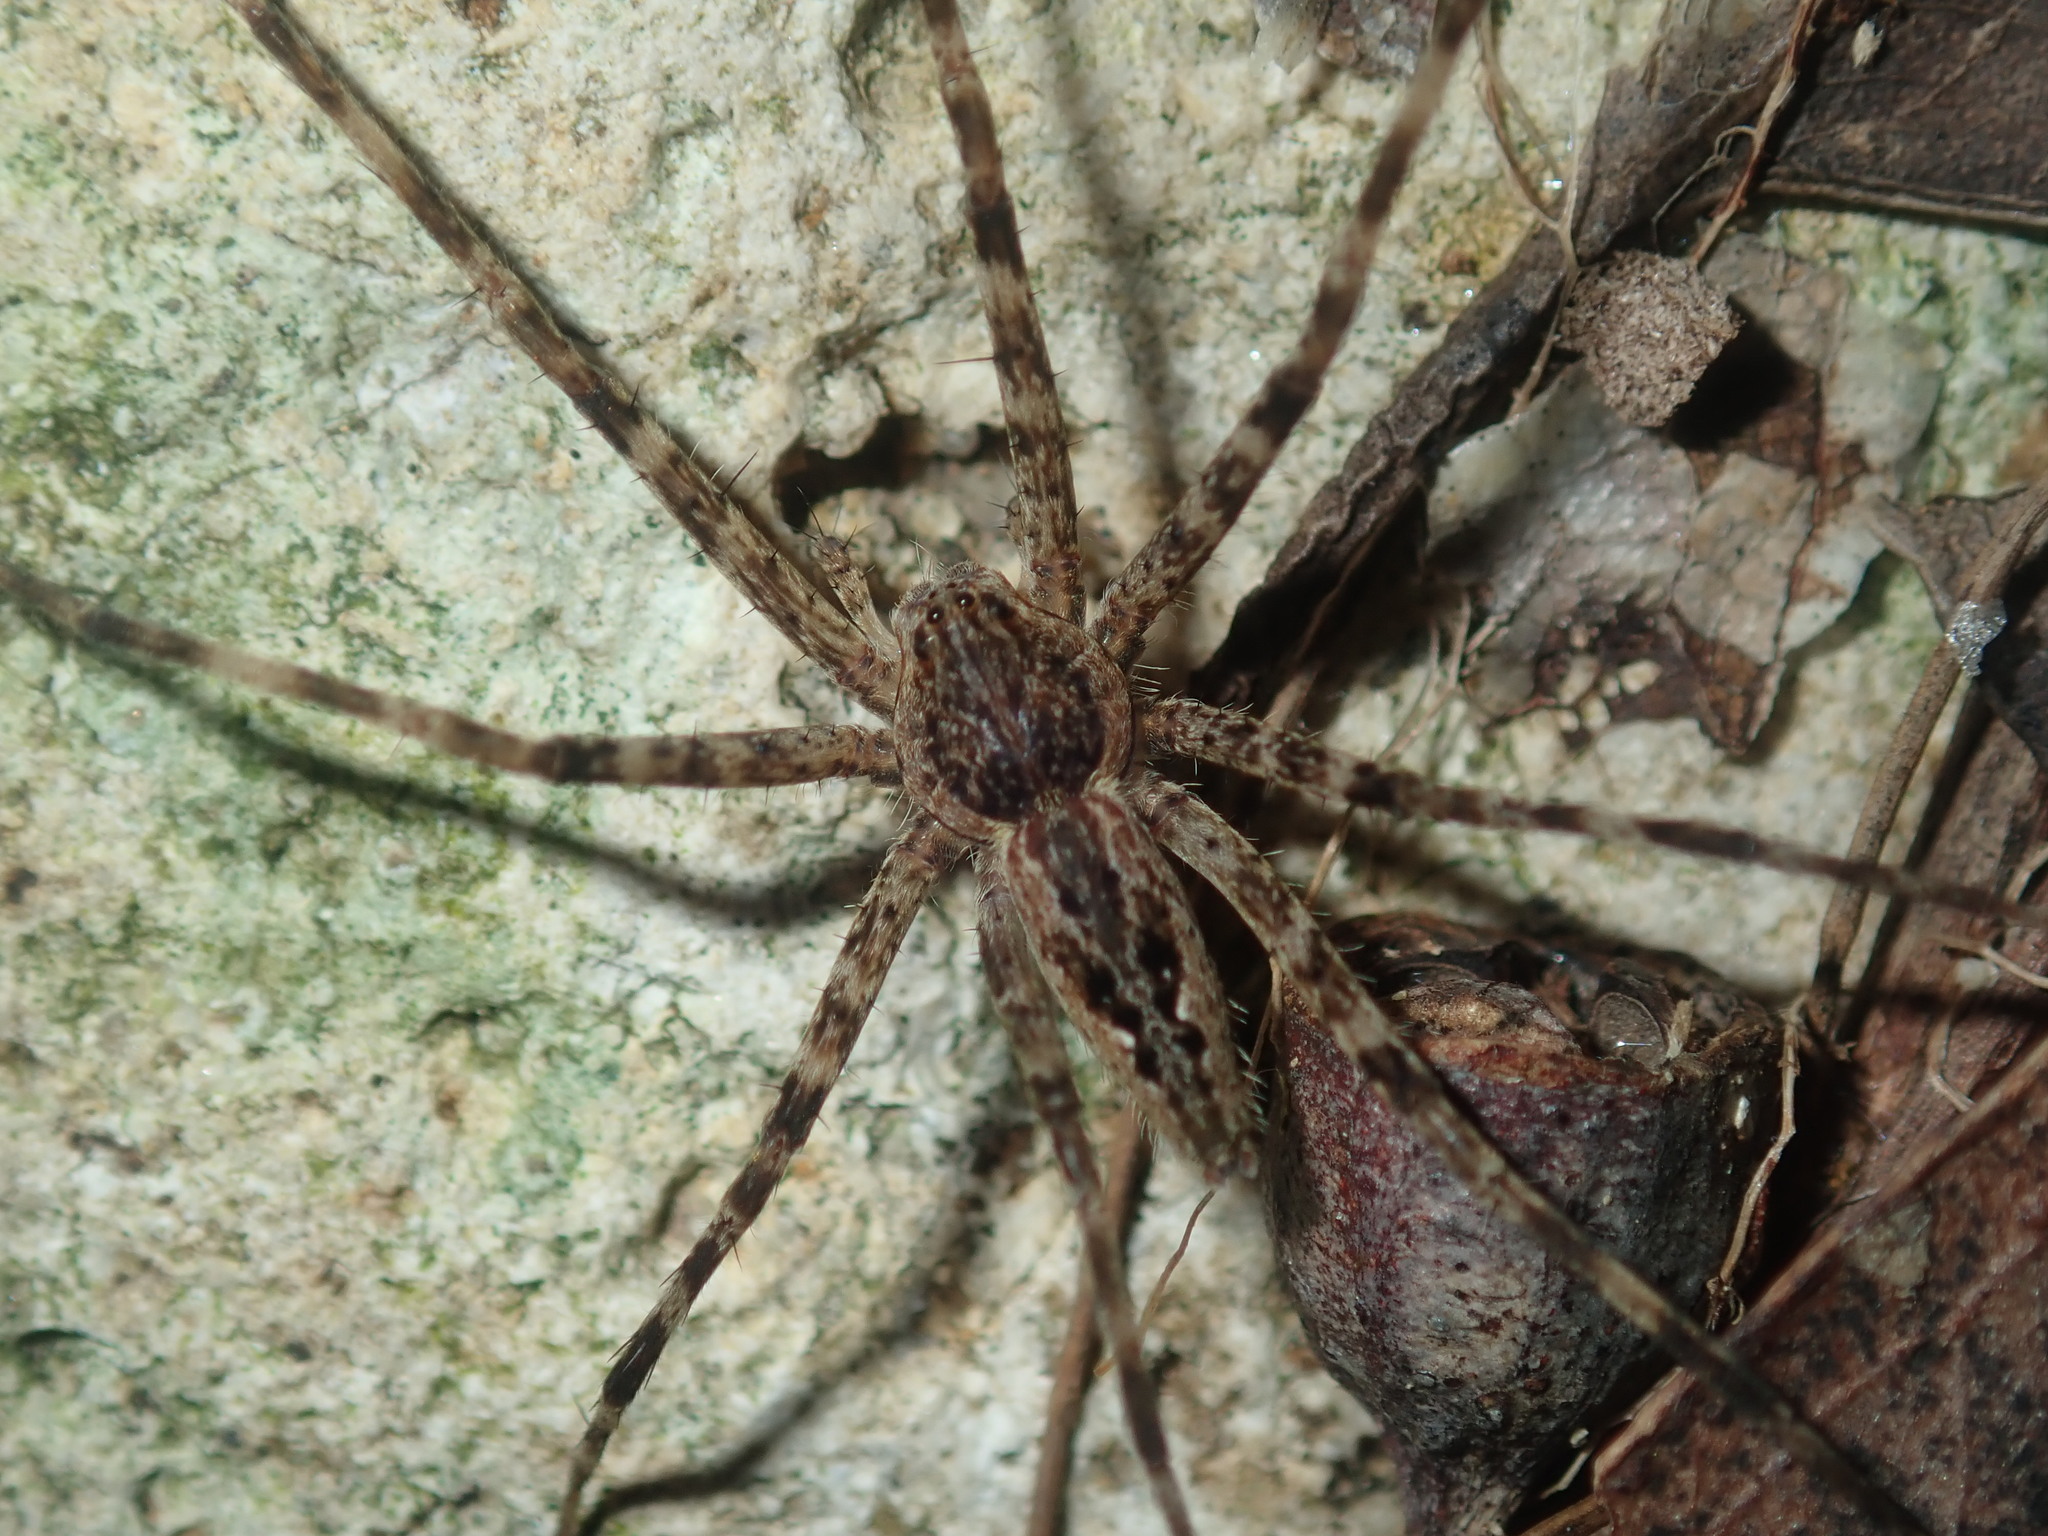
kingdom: Animalia
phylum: Arthropoda
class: Arachnida
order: Araneae
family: Pisauridae
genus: Megadolomedes
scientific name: Megadolomedes trux
